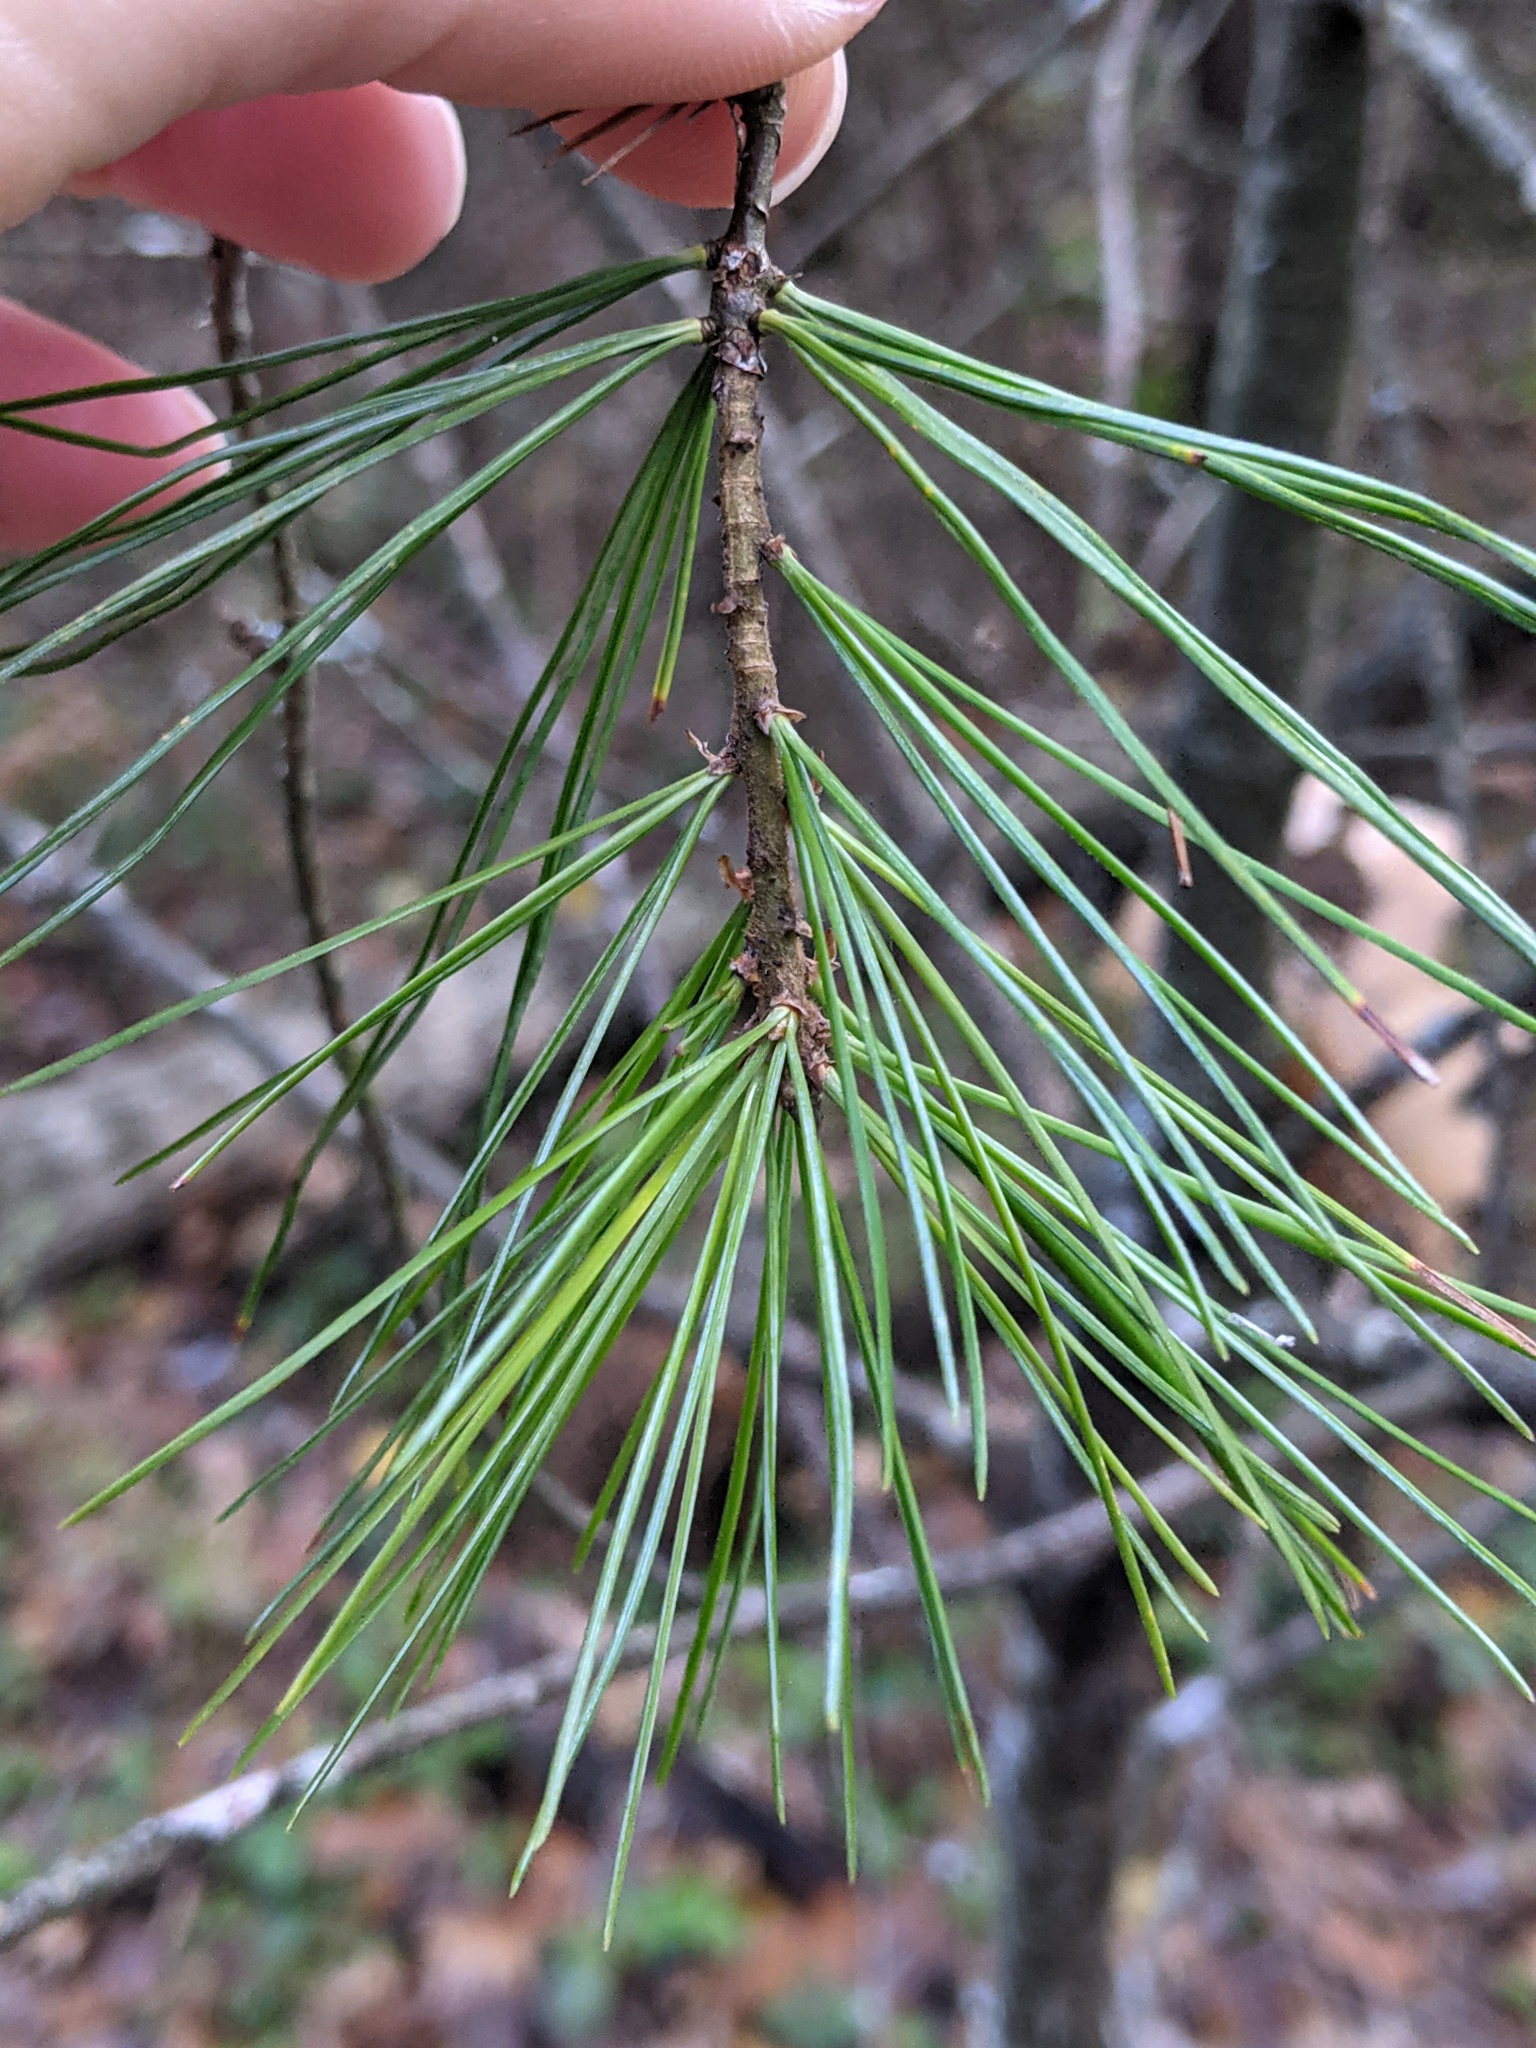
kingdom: Plantae
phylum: Tracheophyta
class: Pinopsida
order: Pinales
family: Pinaceae
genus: Pinus
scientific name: Pinus strobus
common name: Weymouth pine
